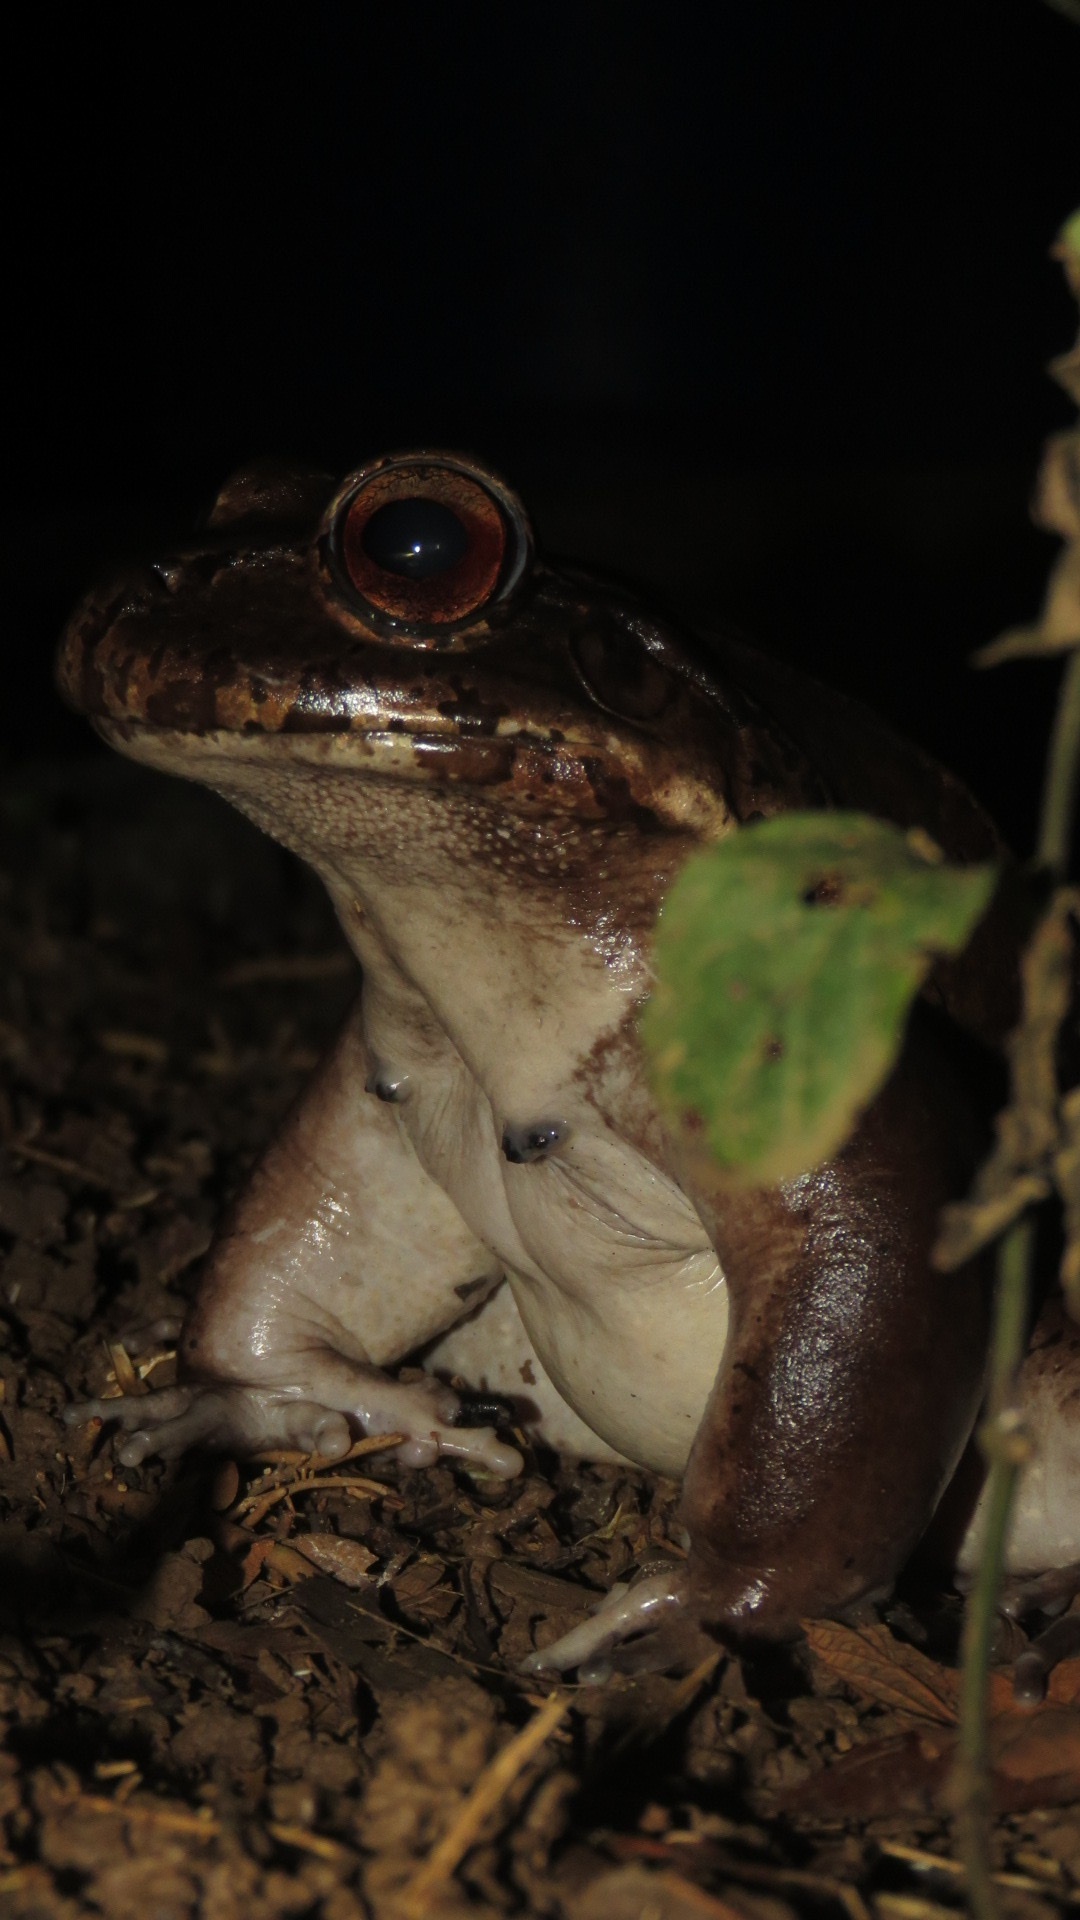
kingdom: Animalia
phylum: Chordata
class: Amphibia
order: Anura
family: Leptodactylidae
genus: Leptodactylus
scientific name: Leptodactylus savagei
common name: Savage's thin-toed frog
